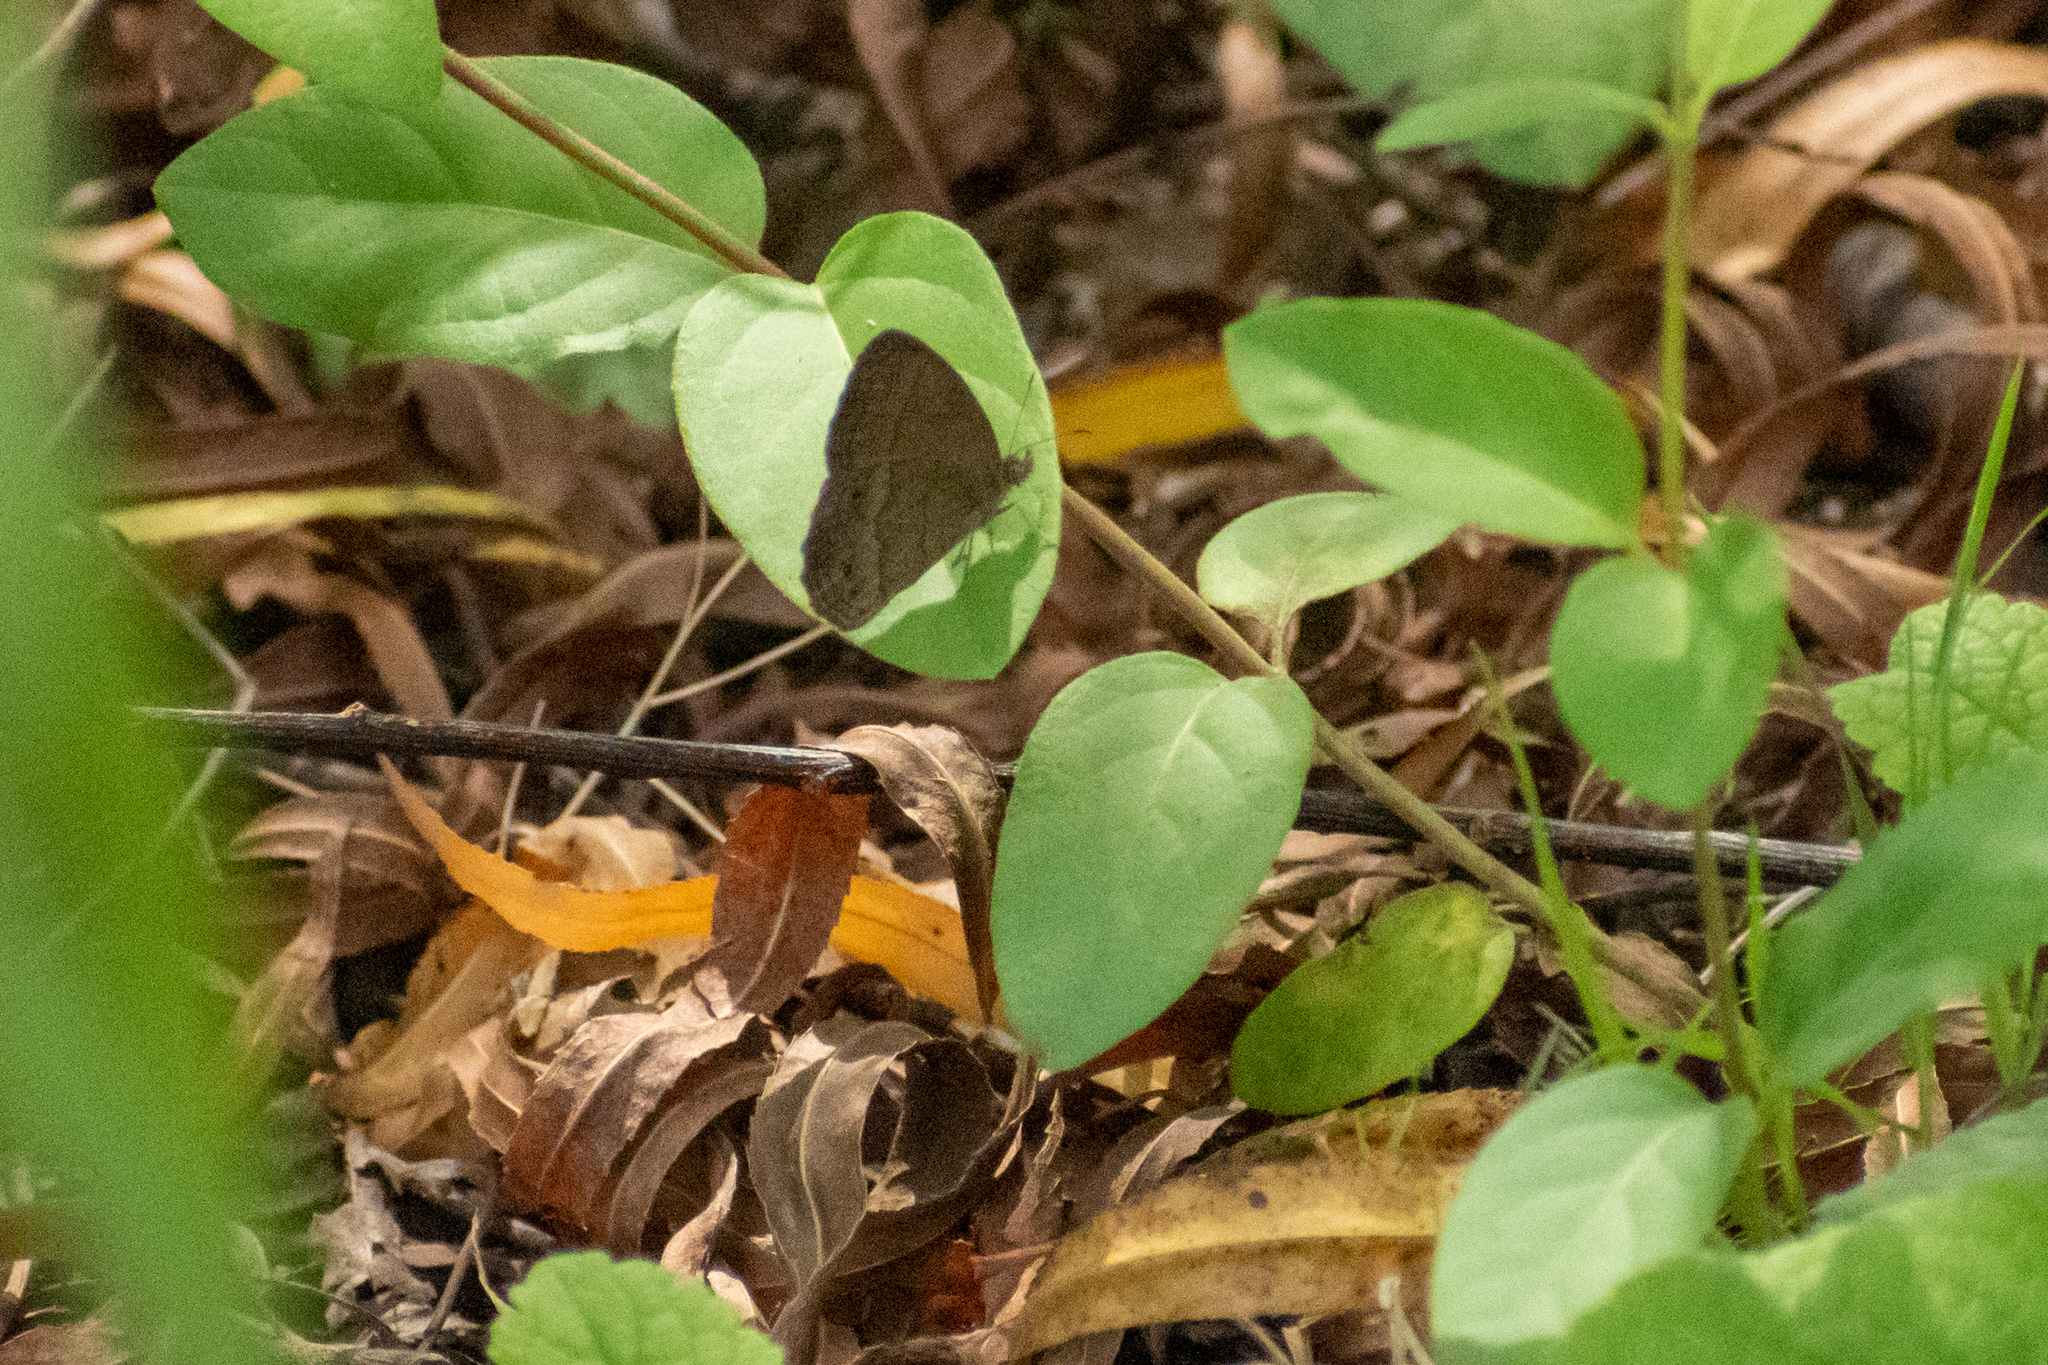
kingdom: Animalia
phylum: Arthropoda
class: Insecta
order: Lepidoptera
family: Nymphalidae
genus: Yphthimoides
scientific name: Yphthimoides celmis
